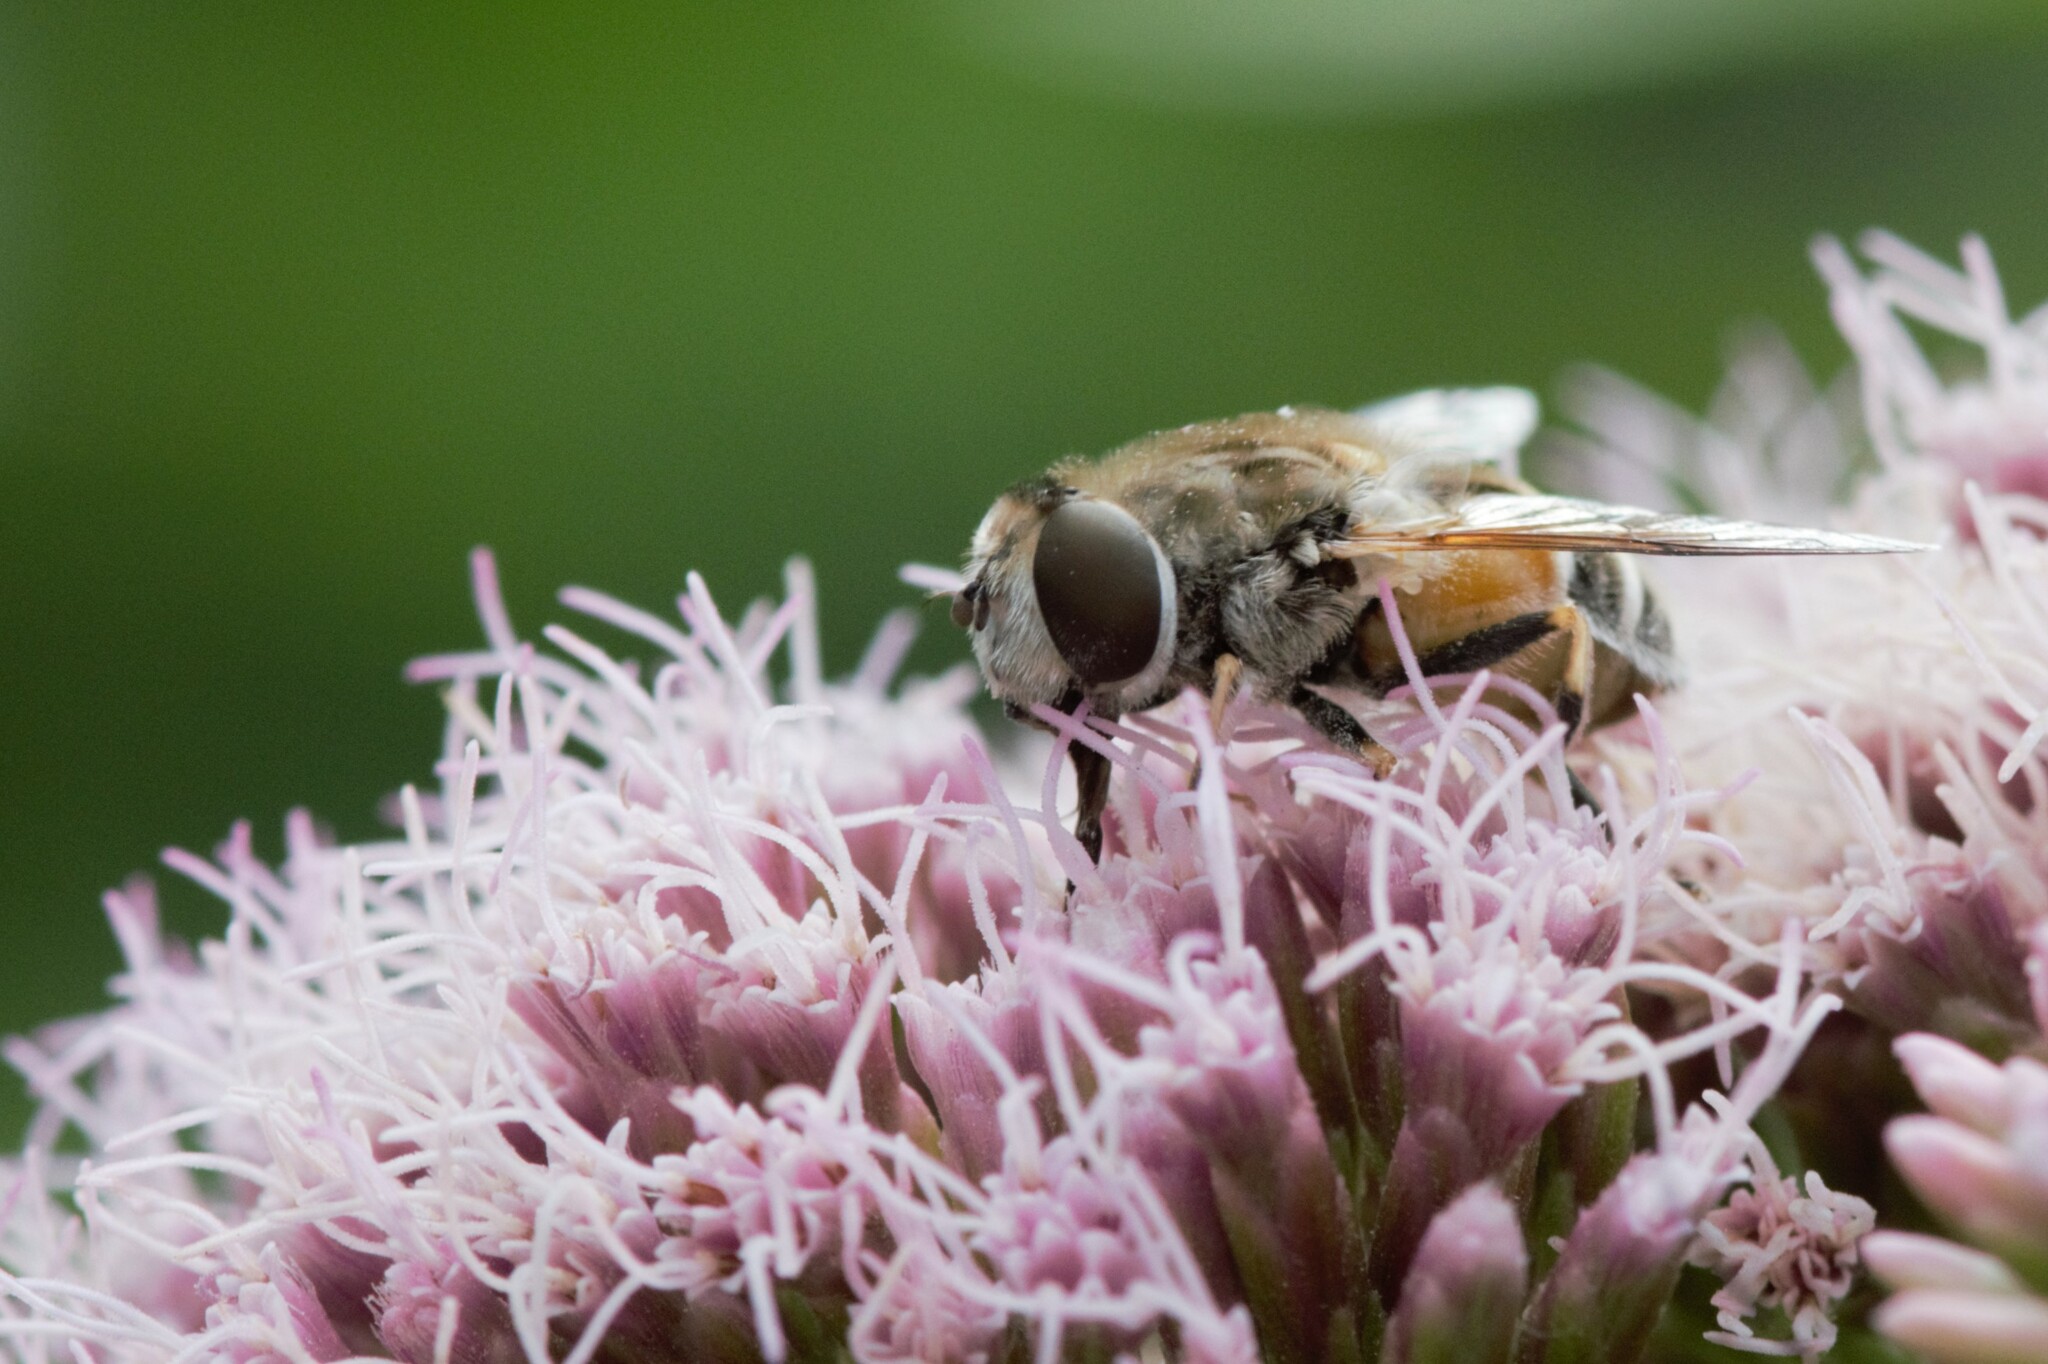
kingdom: Animalia
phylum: Arthropoda
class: Insecta
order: Diptera
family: Syrphidae
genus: Eristalis
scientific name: Eristalis arbustorum
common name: Hover fly
